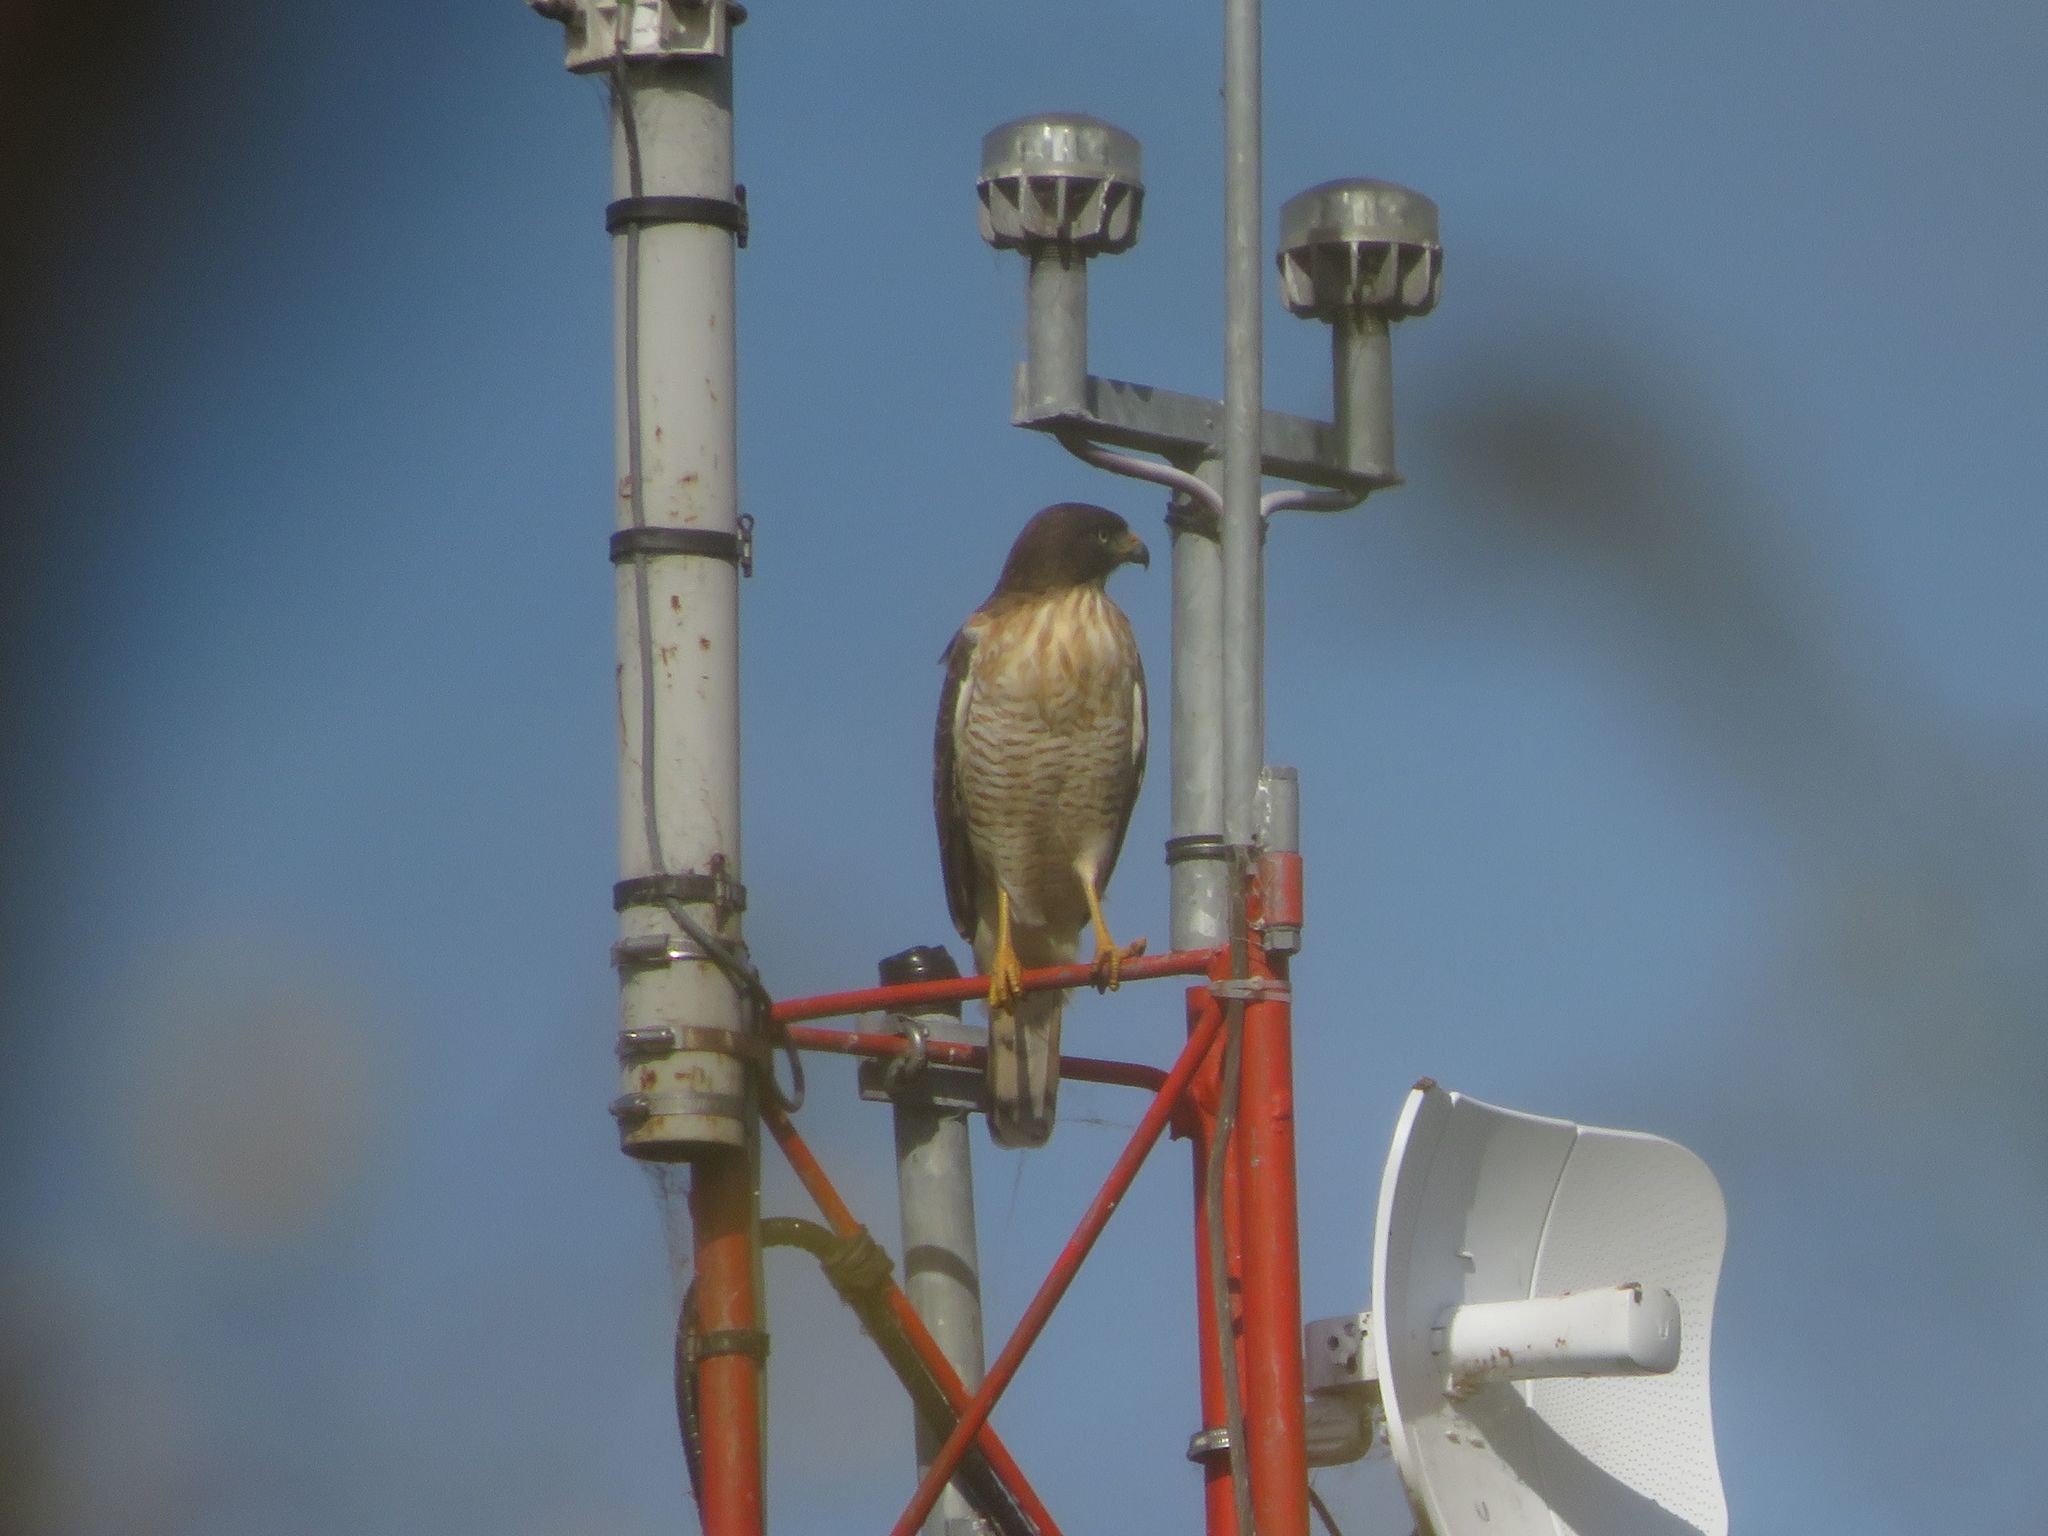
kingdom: Animalia
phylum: Chordata
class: Aves
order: Accipitriformes
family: Accipitridae
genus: Rupornis
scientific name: Rupornis magnirostris
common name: Roadside hawk
